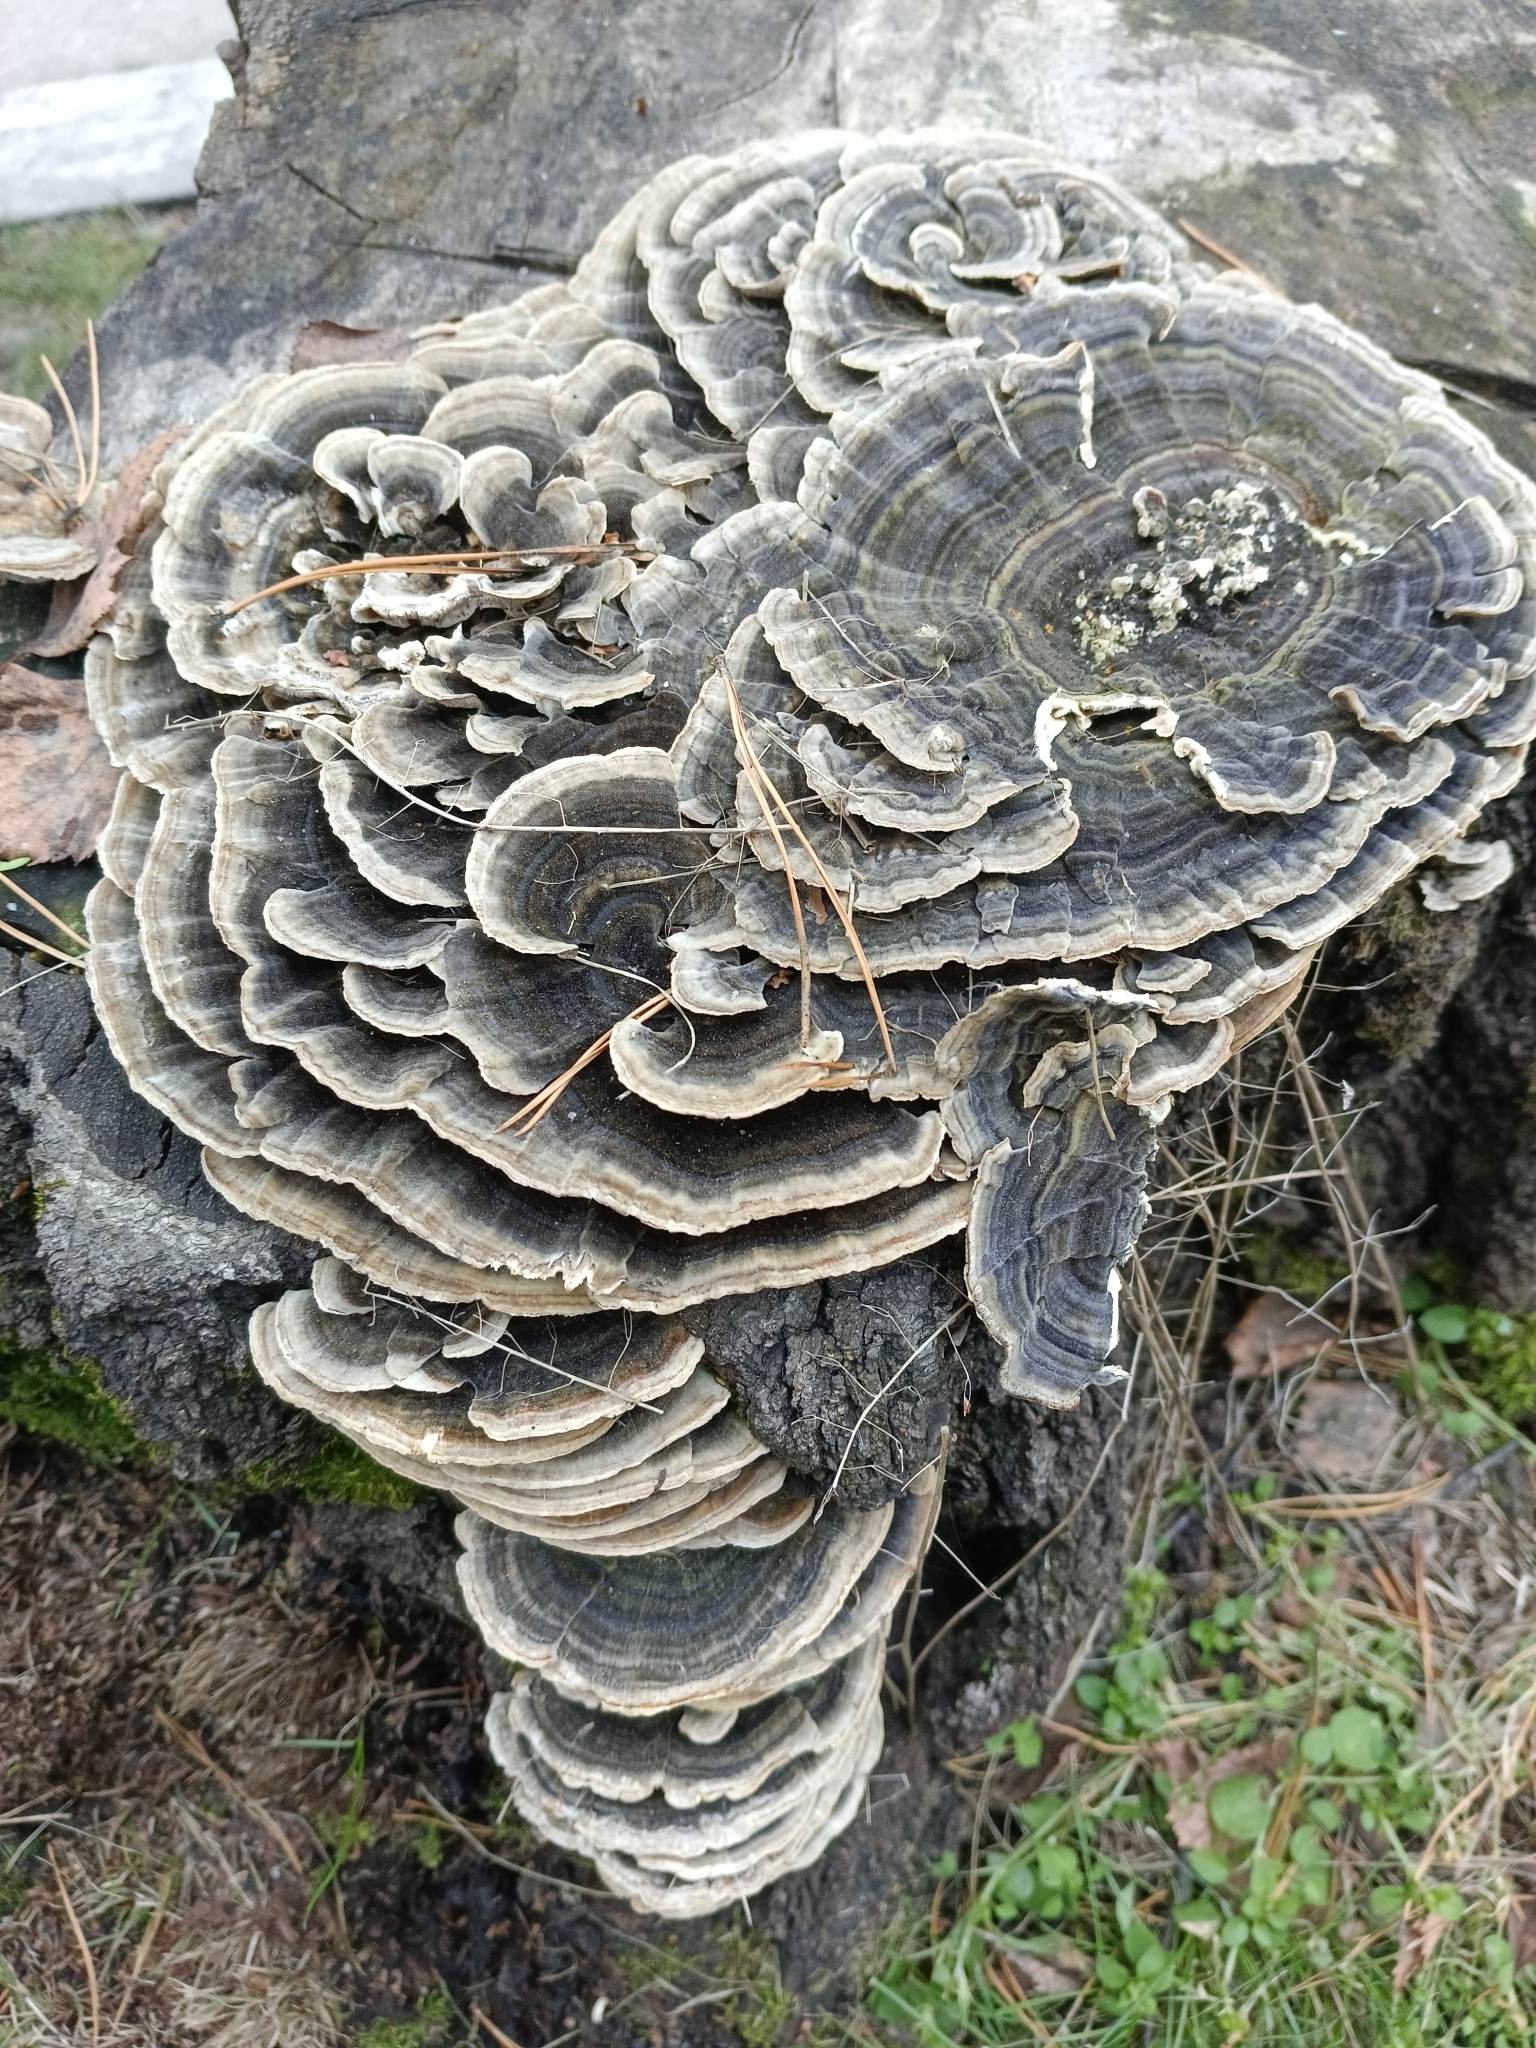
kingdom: Fungi
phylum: Basidiomycota
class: Agaricomycetes
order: Polyporales
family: Polyporaceae
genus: Trametes
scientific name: Trametes versicolor
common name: Turkeytail
